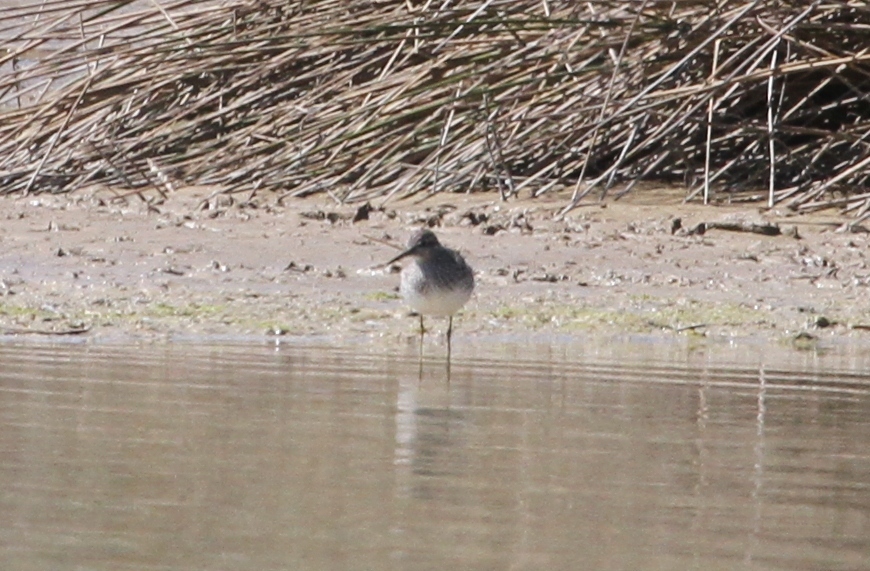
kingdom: Animalia
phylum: Chordata
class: Aves
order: Charadriiformes
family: Scolopacidae
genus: Tringa
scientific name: Tringa glareola
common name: Wood sandpiper
